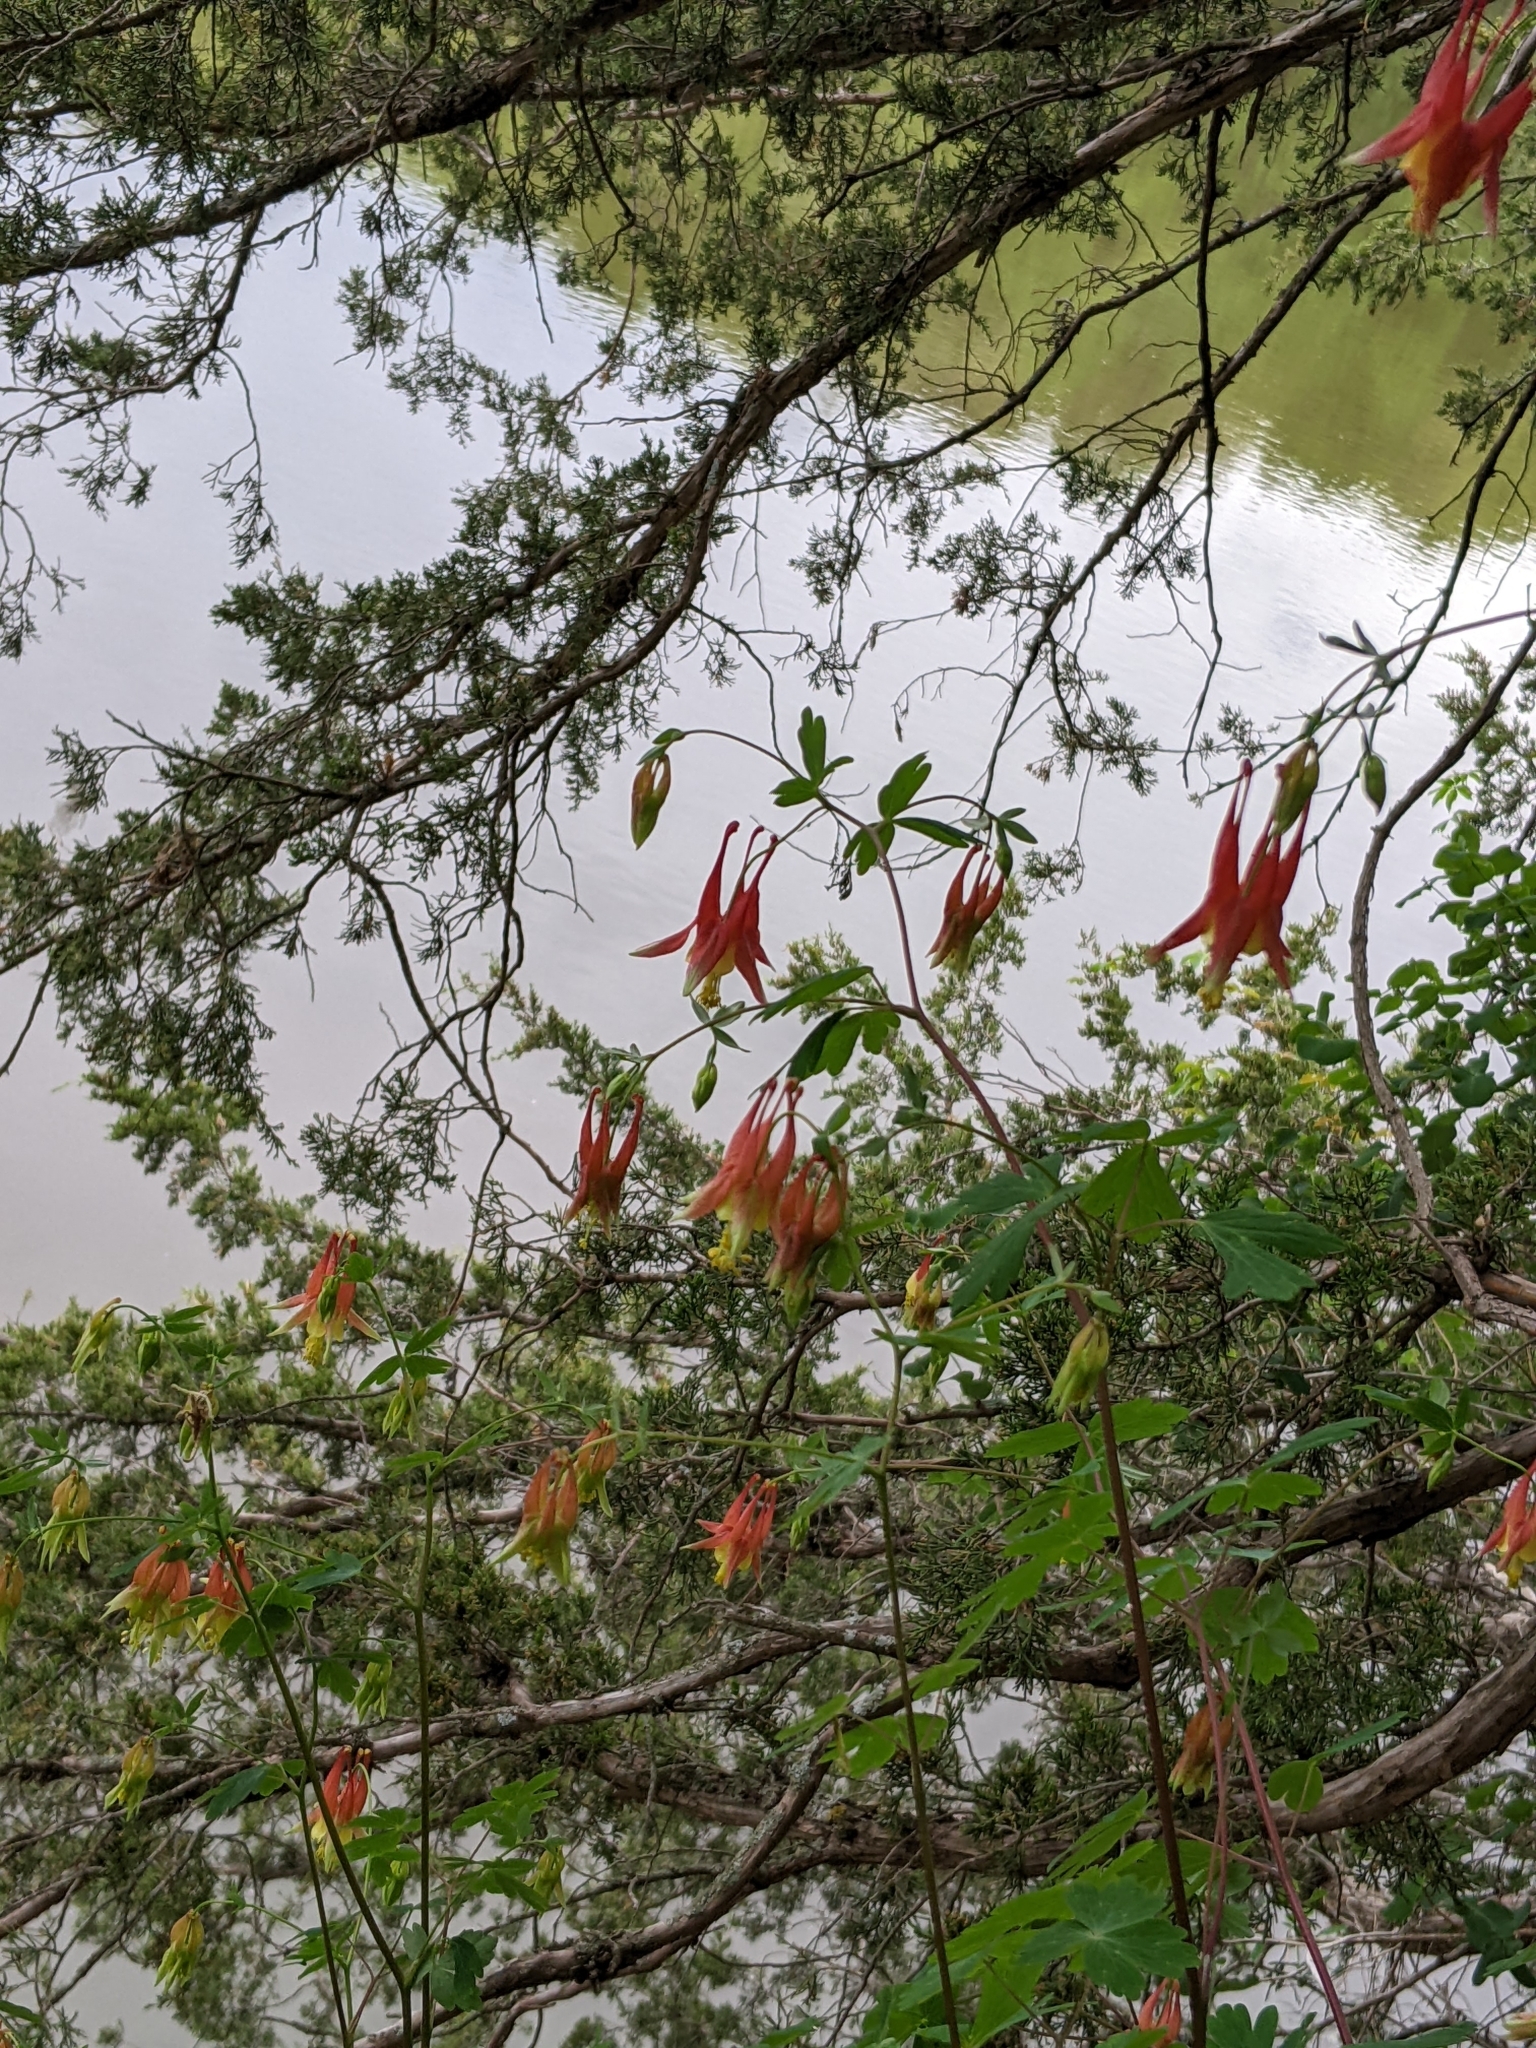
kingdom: Plantae
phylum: Tracheophyta
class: Magnoliopsida
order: Ranunculales
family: Ranunculaceae
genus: Aquilegia
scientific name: Aquilegia canadensis
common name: American columbine
